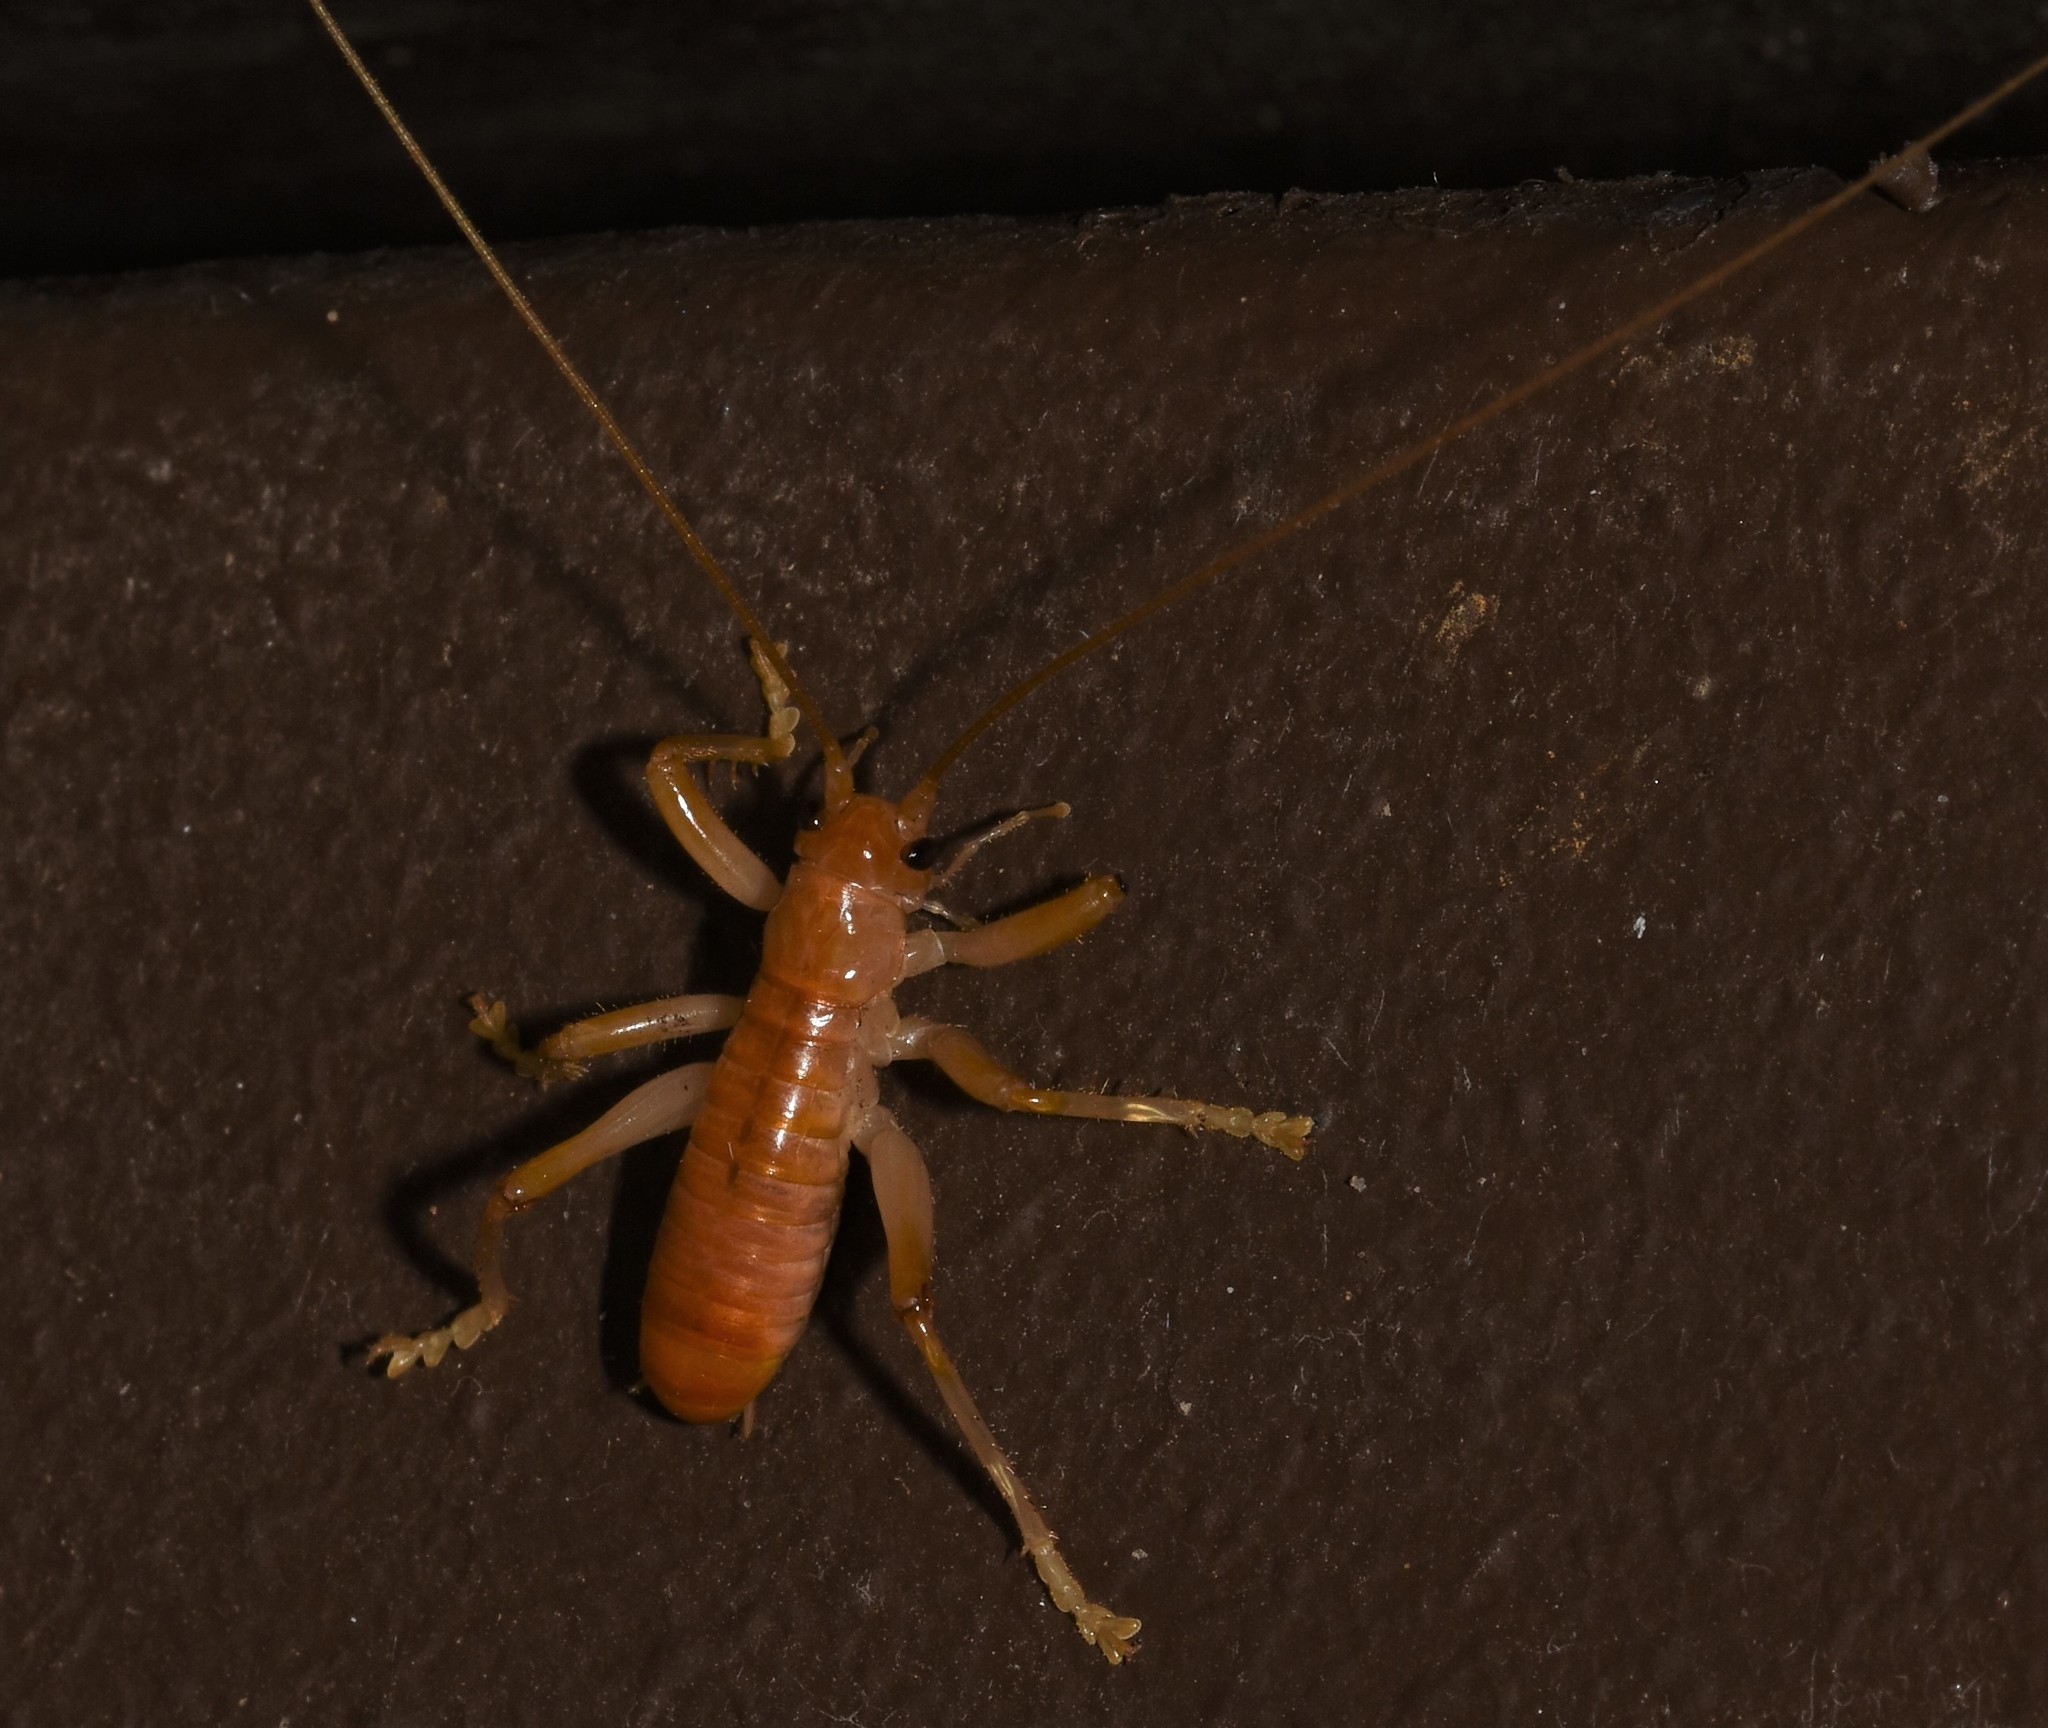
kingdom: Animalia
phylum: Arthropoda
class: Insecta
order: Orthoptera
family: Gryllacrididae
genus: Camptonotus
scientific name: Camptonotus carolinensis
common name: Carolina leaf-roller
